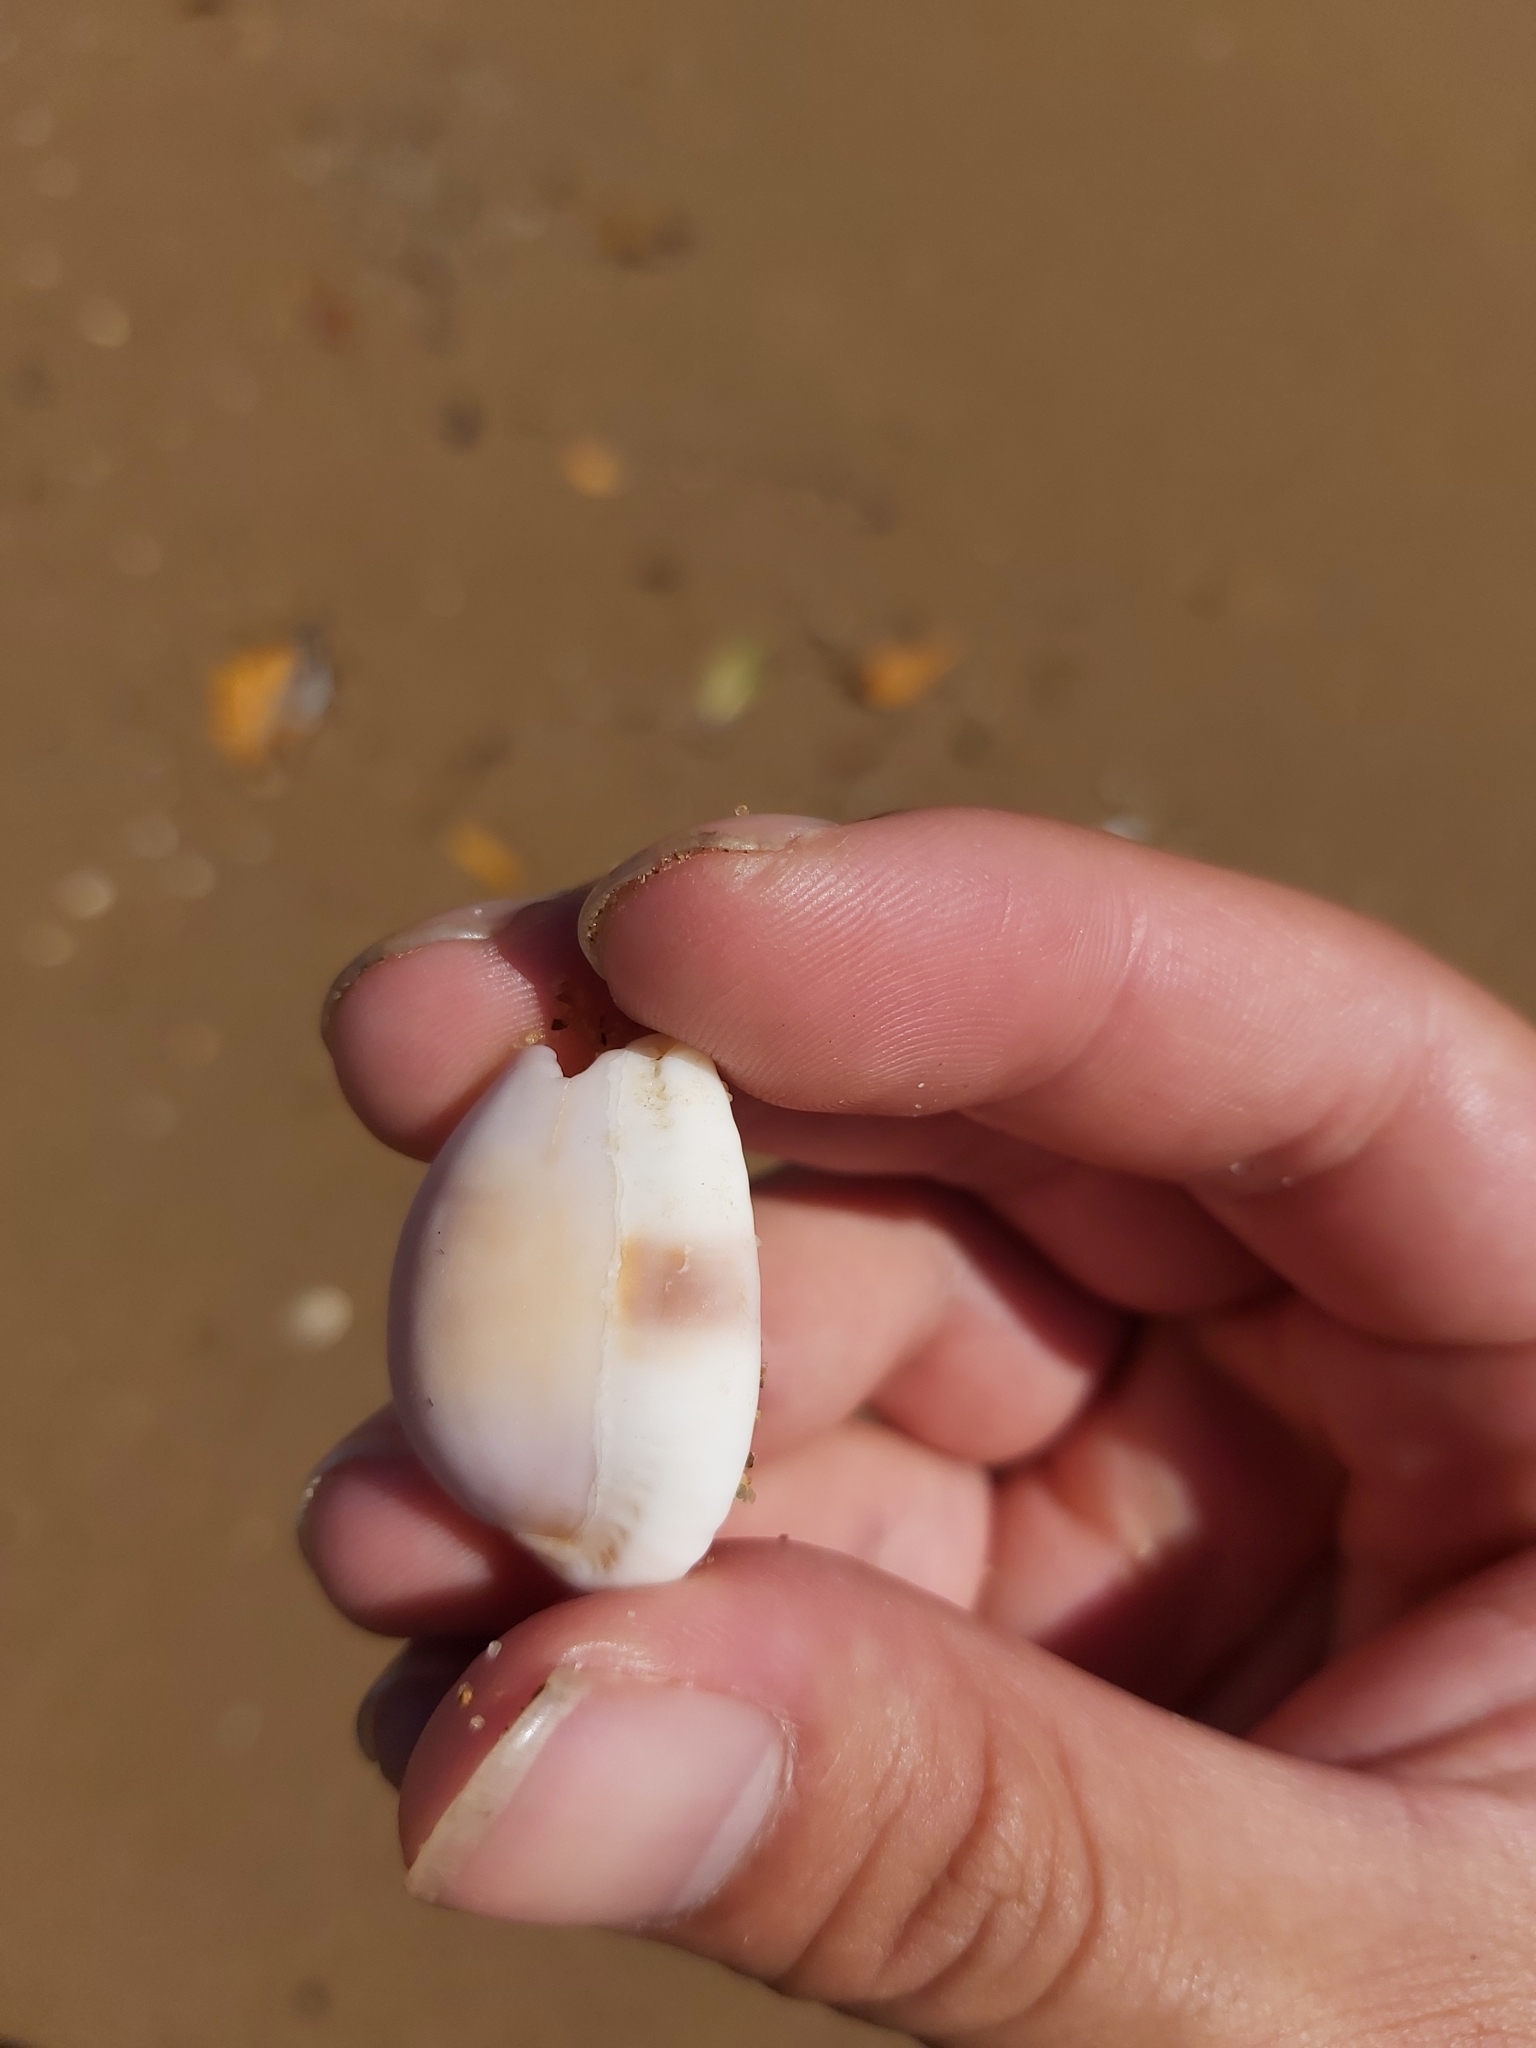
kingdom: Animalia
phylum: Mollusca
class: Gastropoda
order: Littorinimorpha
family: Cypraeidae
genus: Naria
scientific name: Naria erosa
